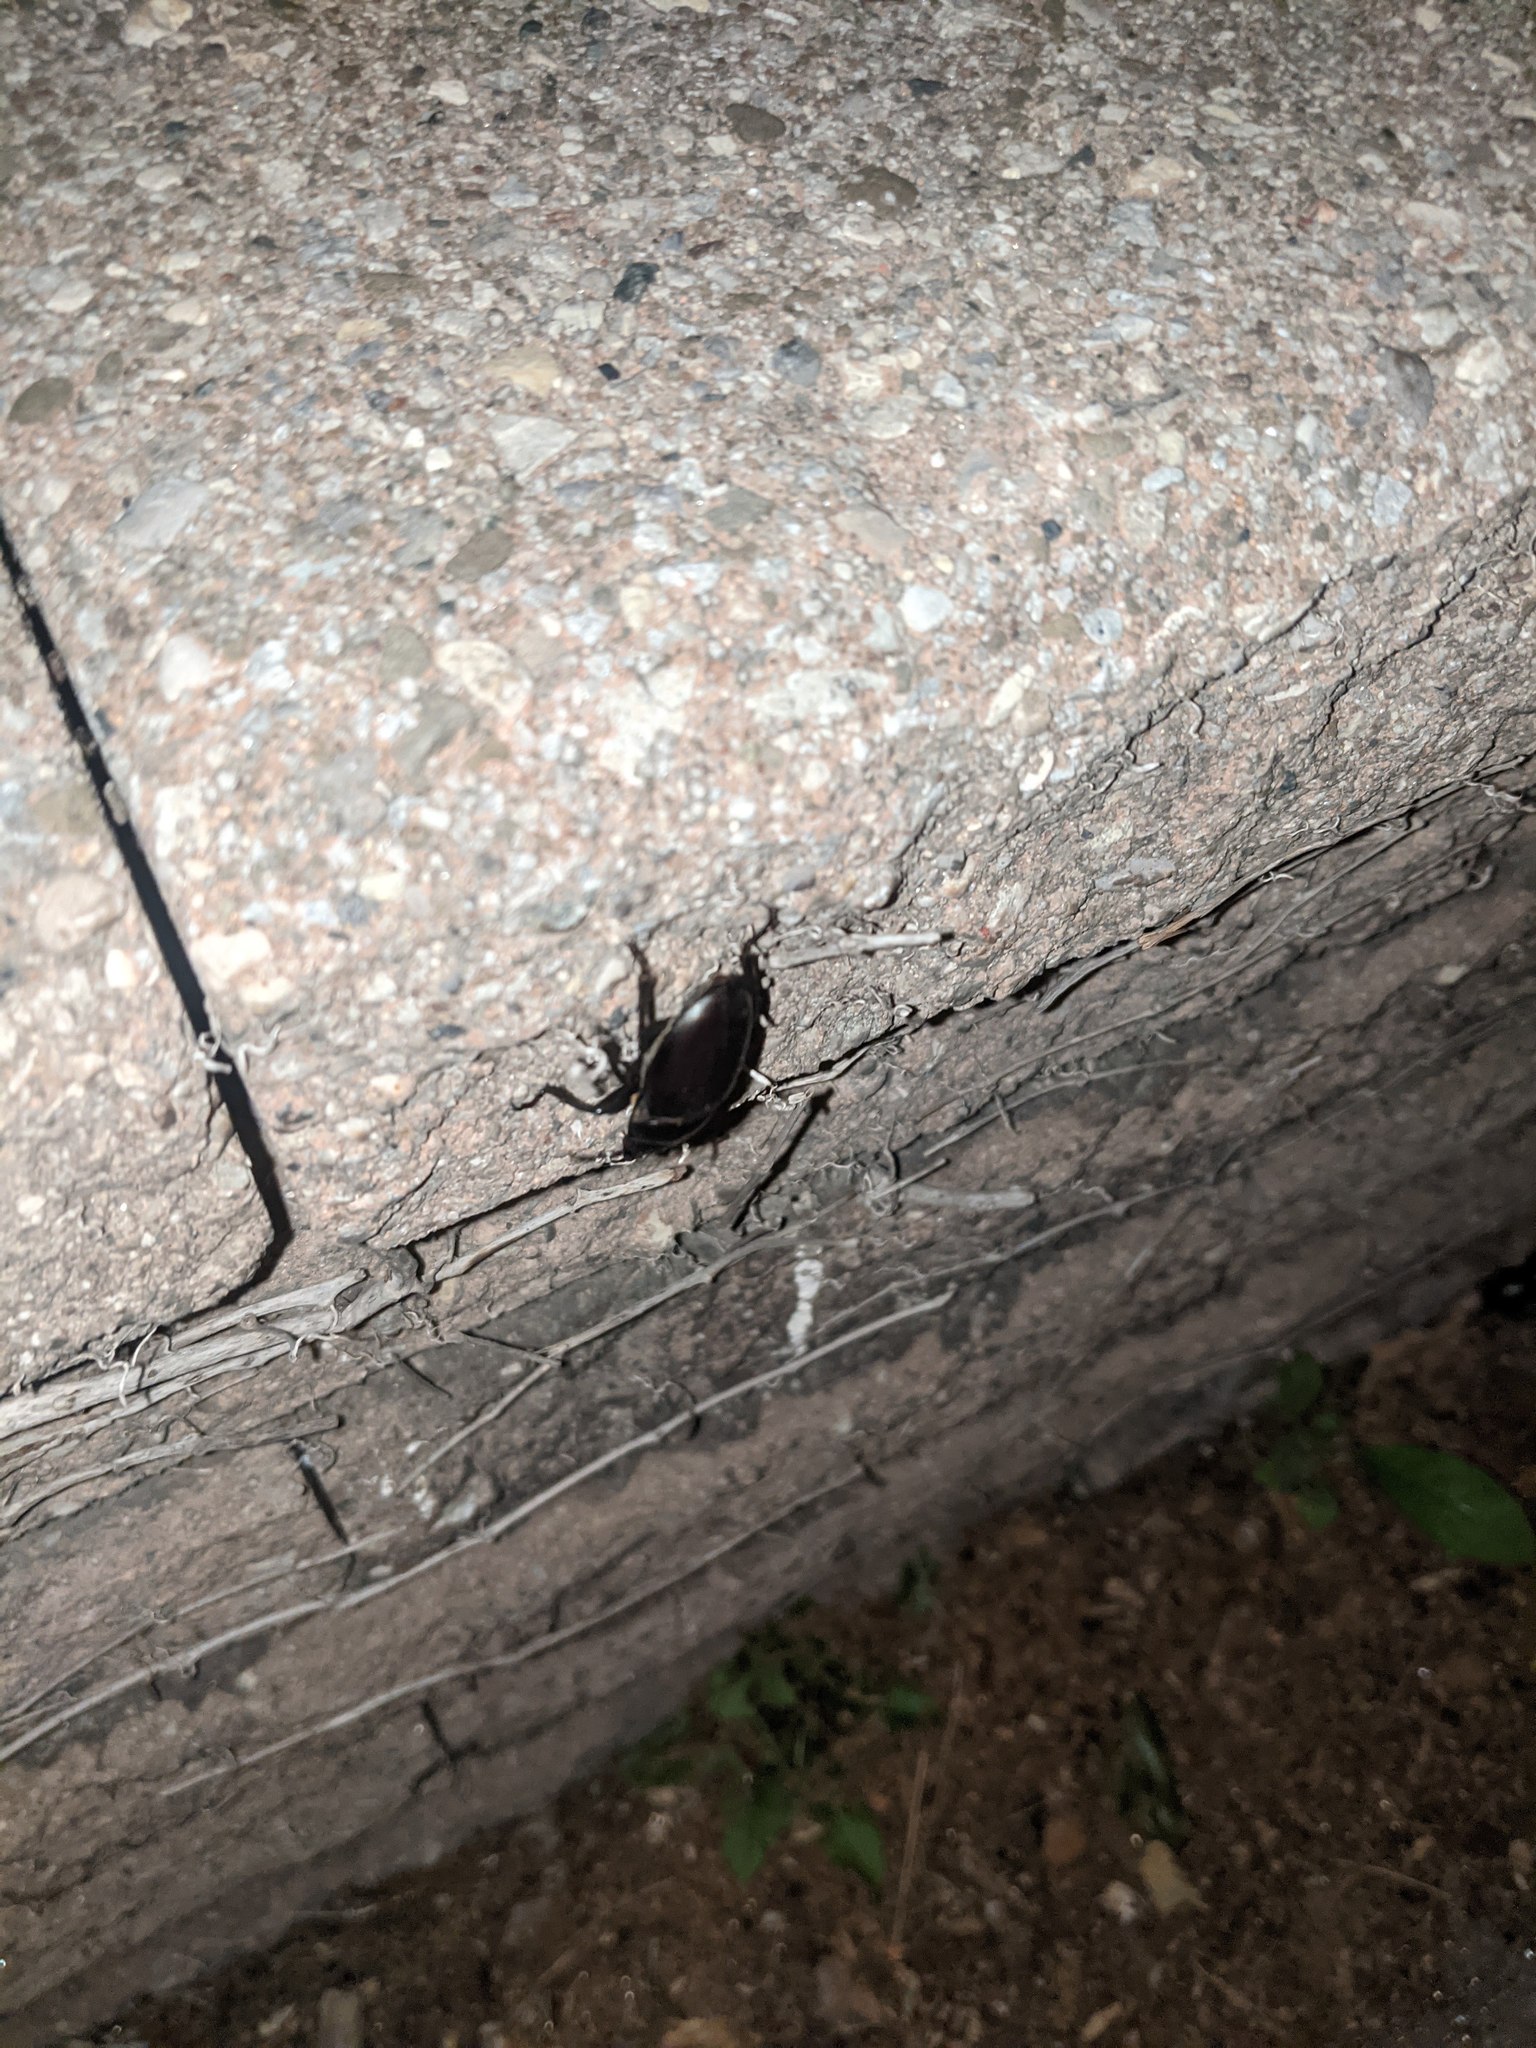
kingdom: Animalia
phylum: Arthropoda
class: Insecta
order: Coleoptera
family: Lucanidae
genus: Lucanus
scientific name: Lucanus placidus
